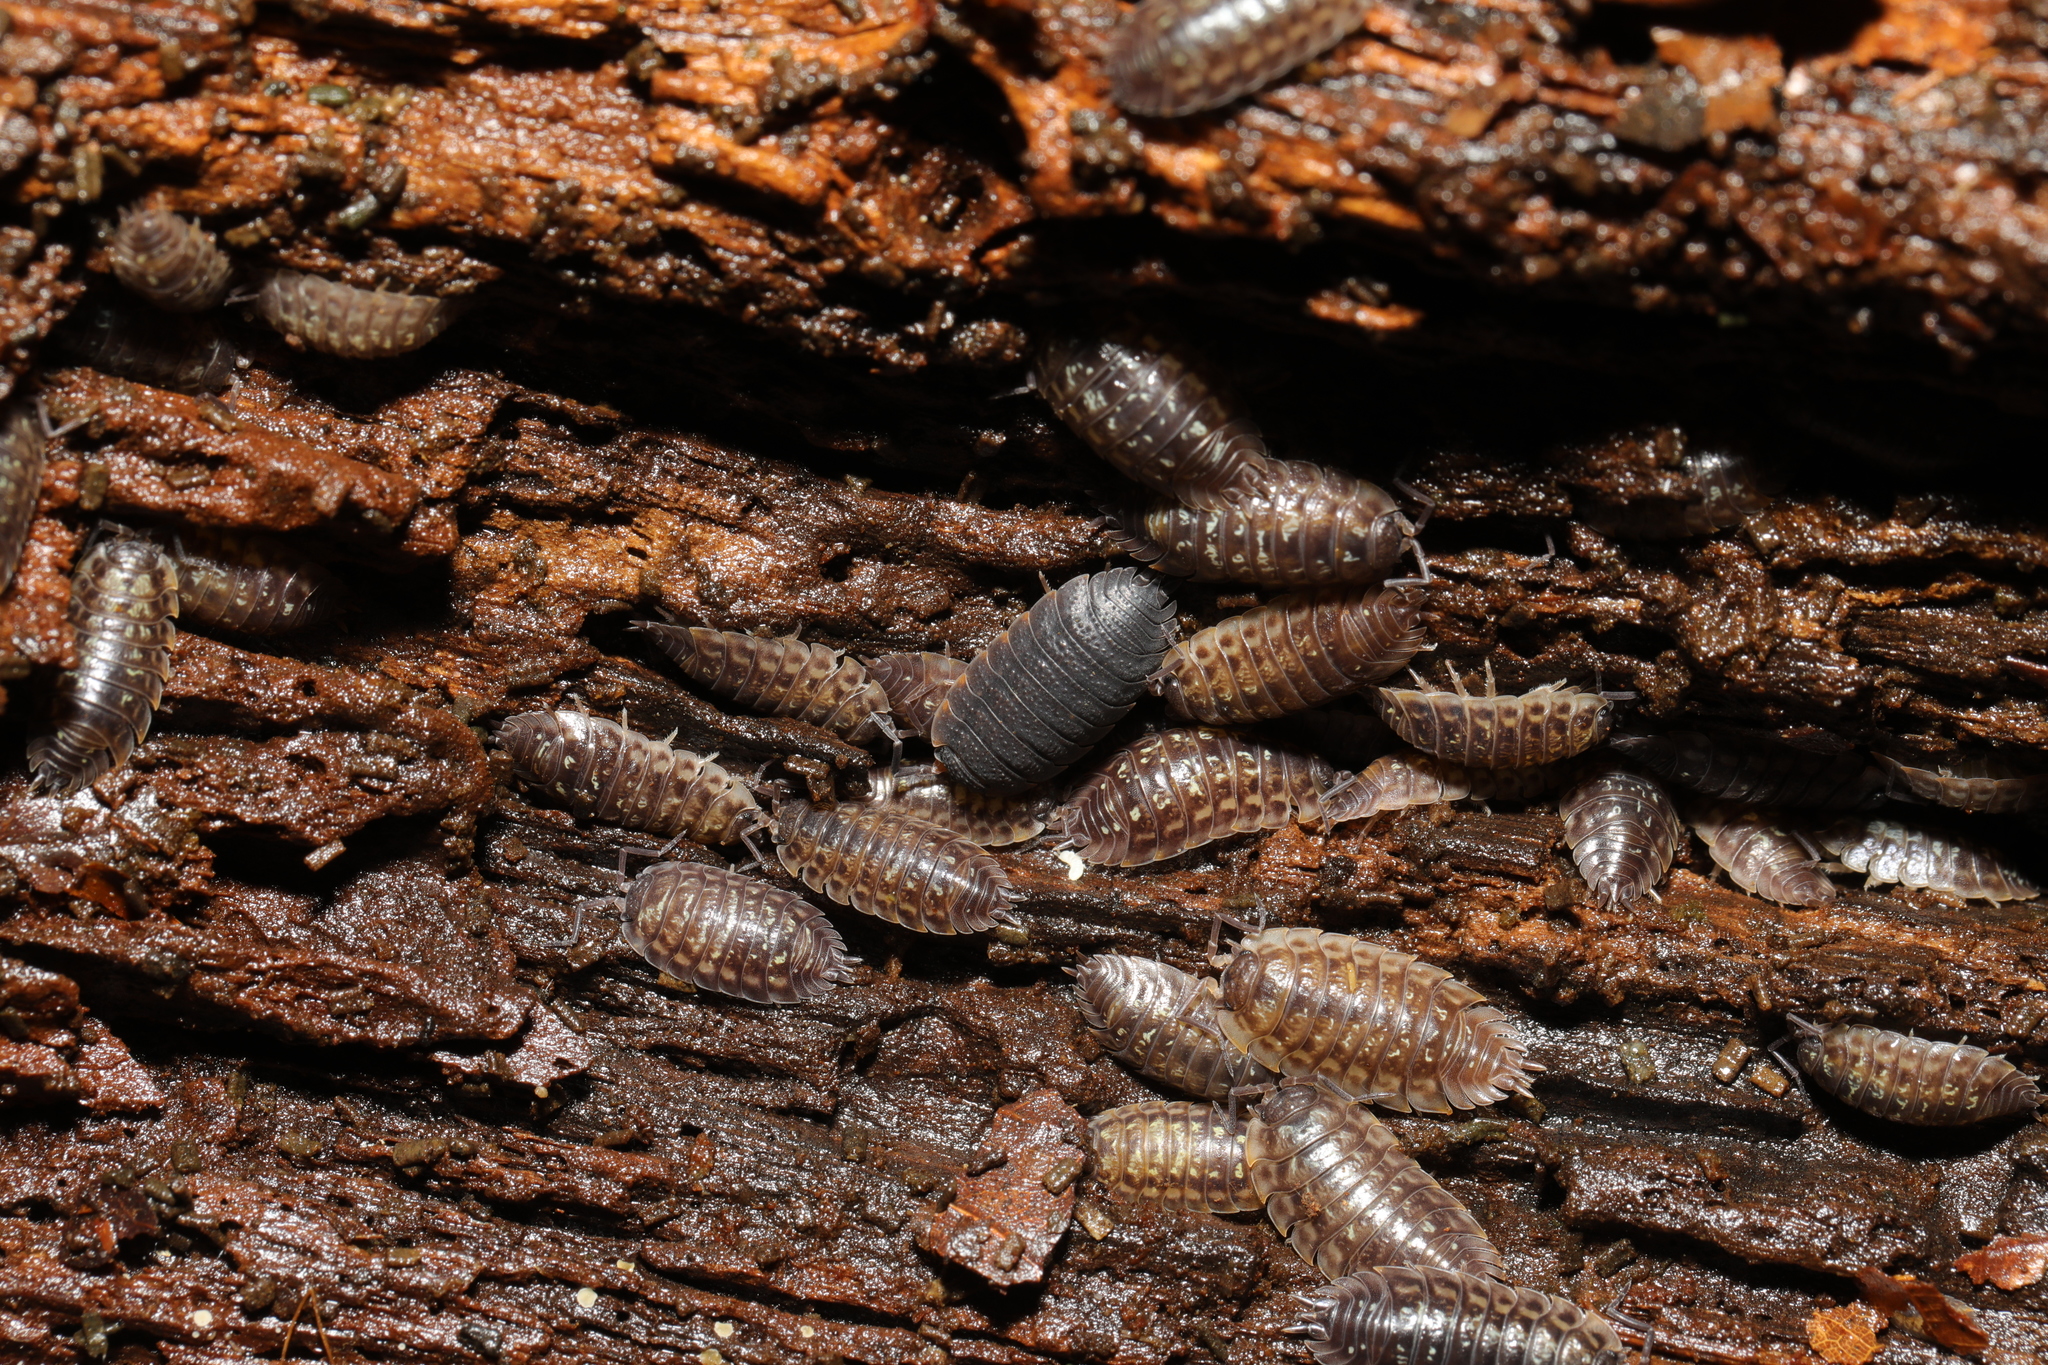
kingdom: Animalia
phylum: Arthropoda
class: Malacostraca
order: Isopoda
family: Oniscidae
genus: Oniscus
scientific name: Oniscus asellus
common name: Common shiny woodlouse
